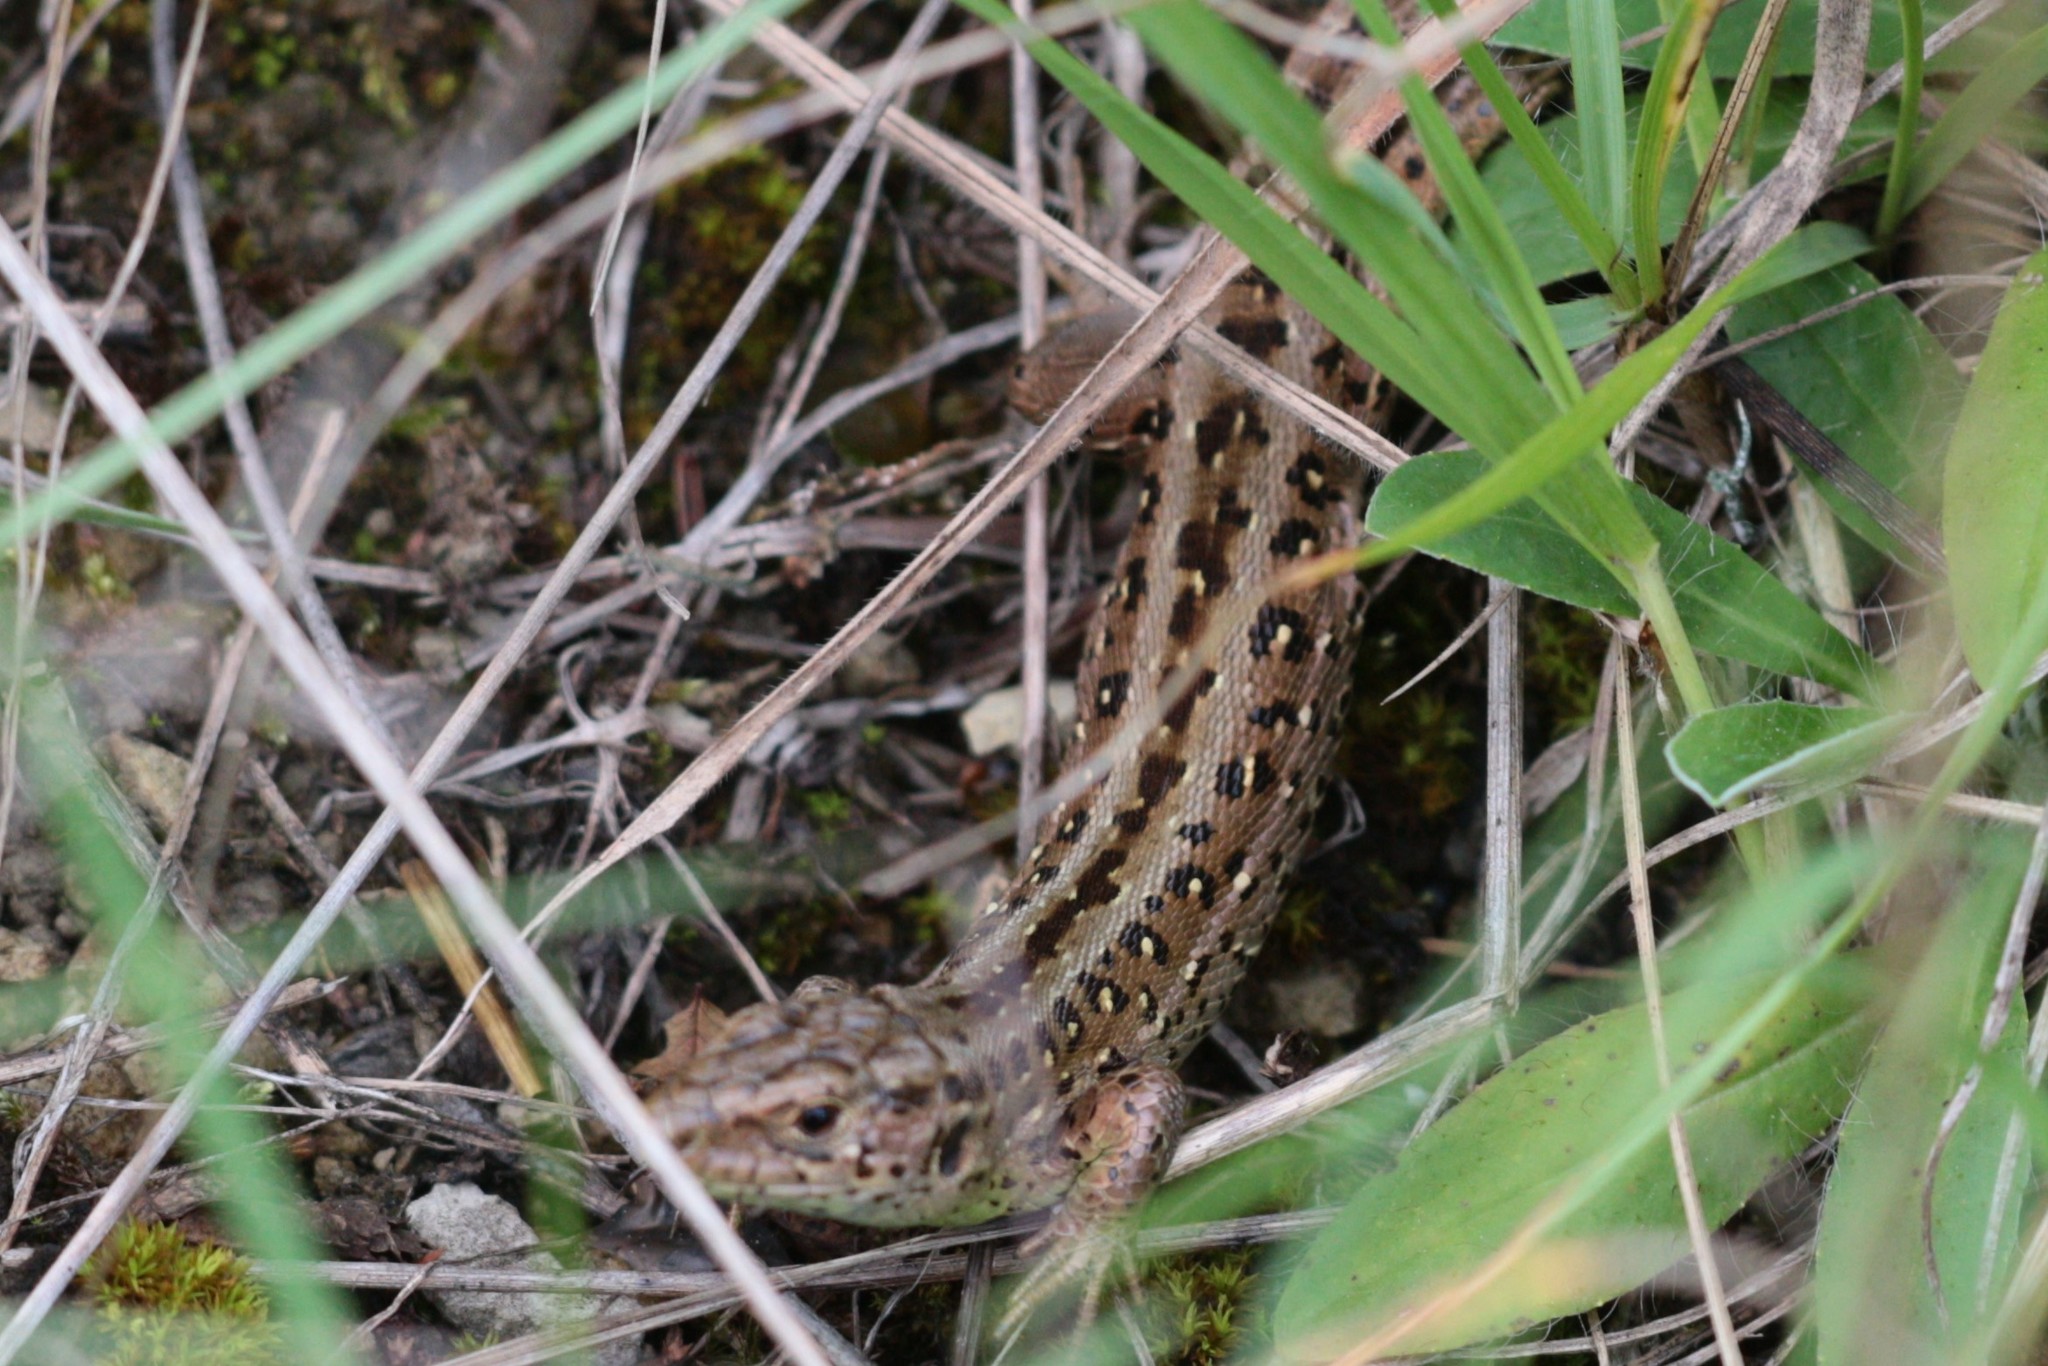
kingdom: Animalia
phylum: Chordata
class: Squamata
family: Lacertidae
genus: Lacerta
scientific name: Lacerta agilis
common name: Sand lizard
